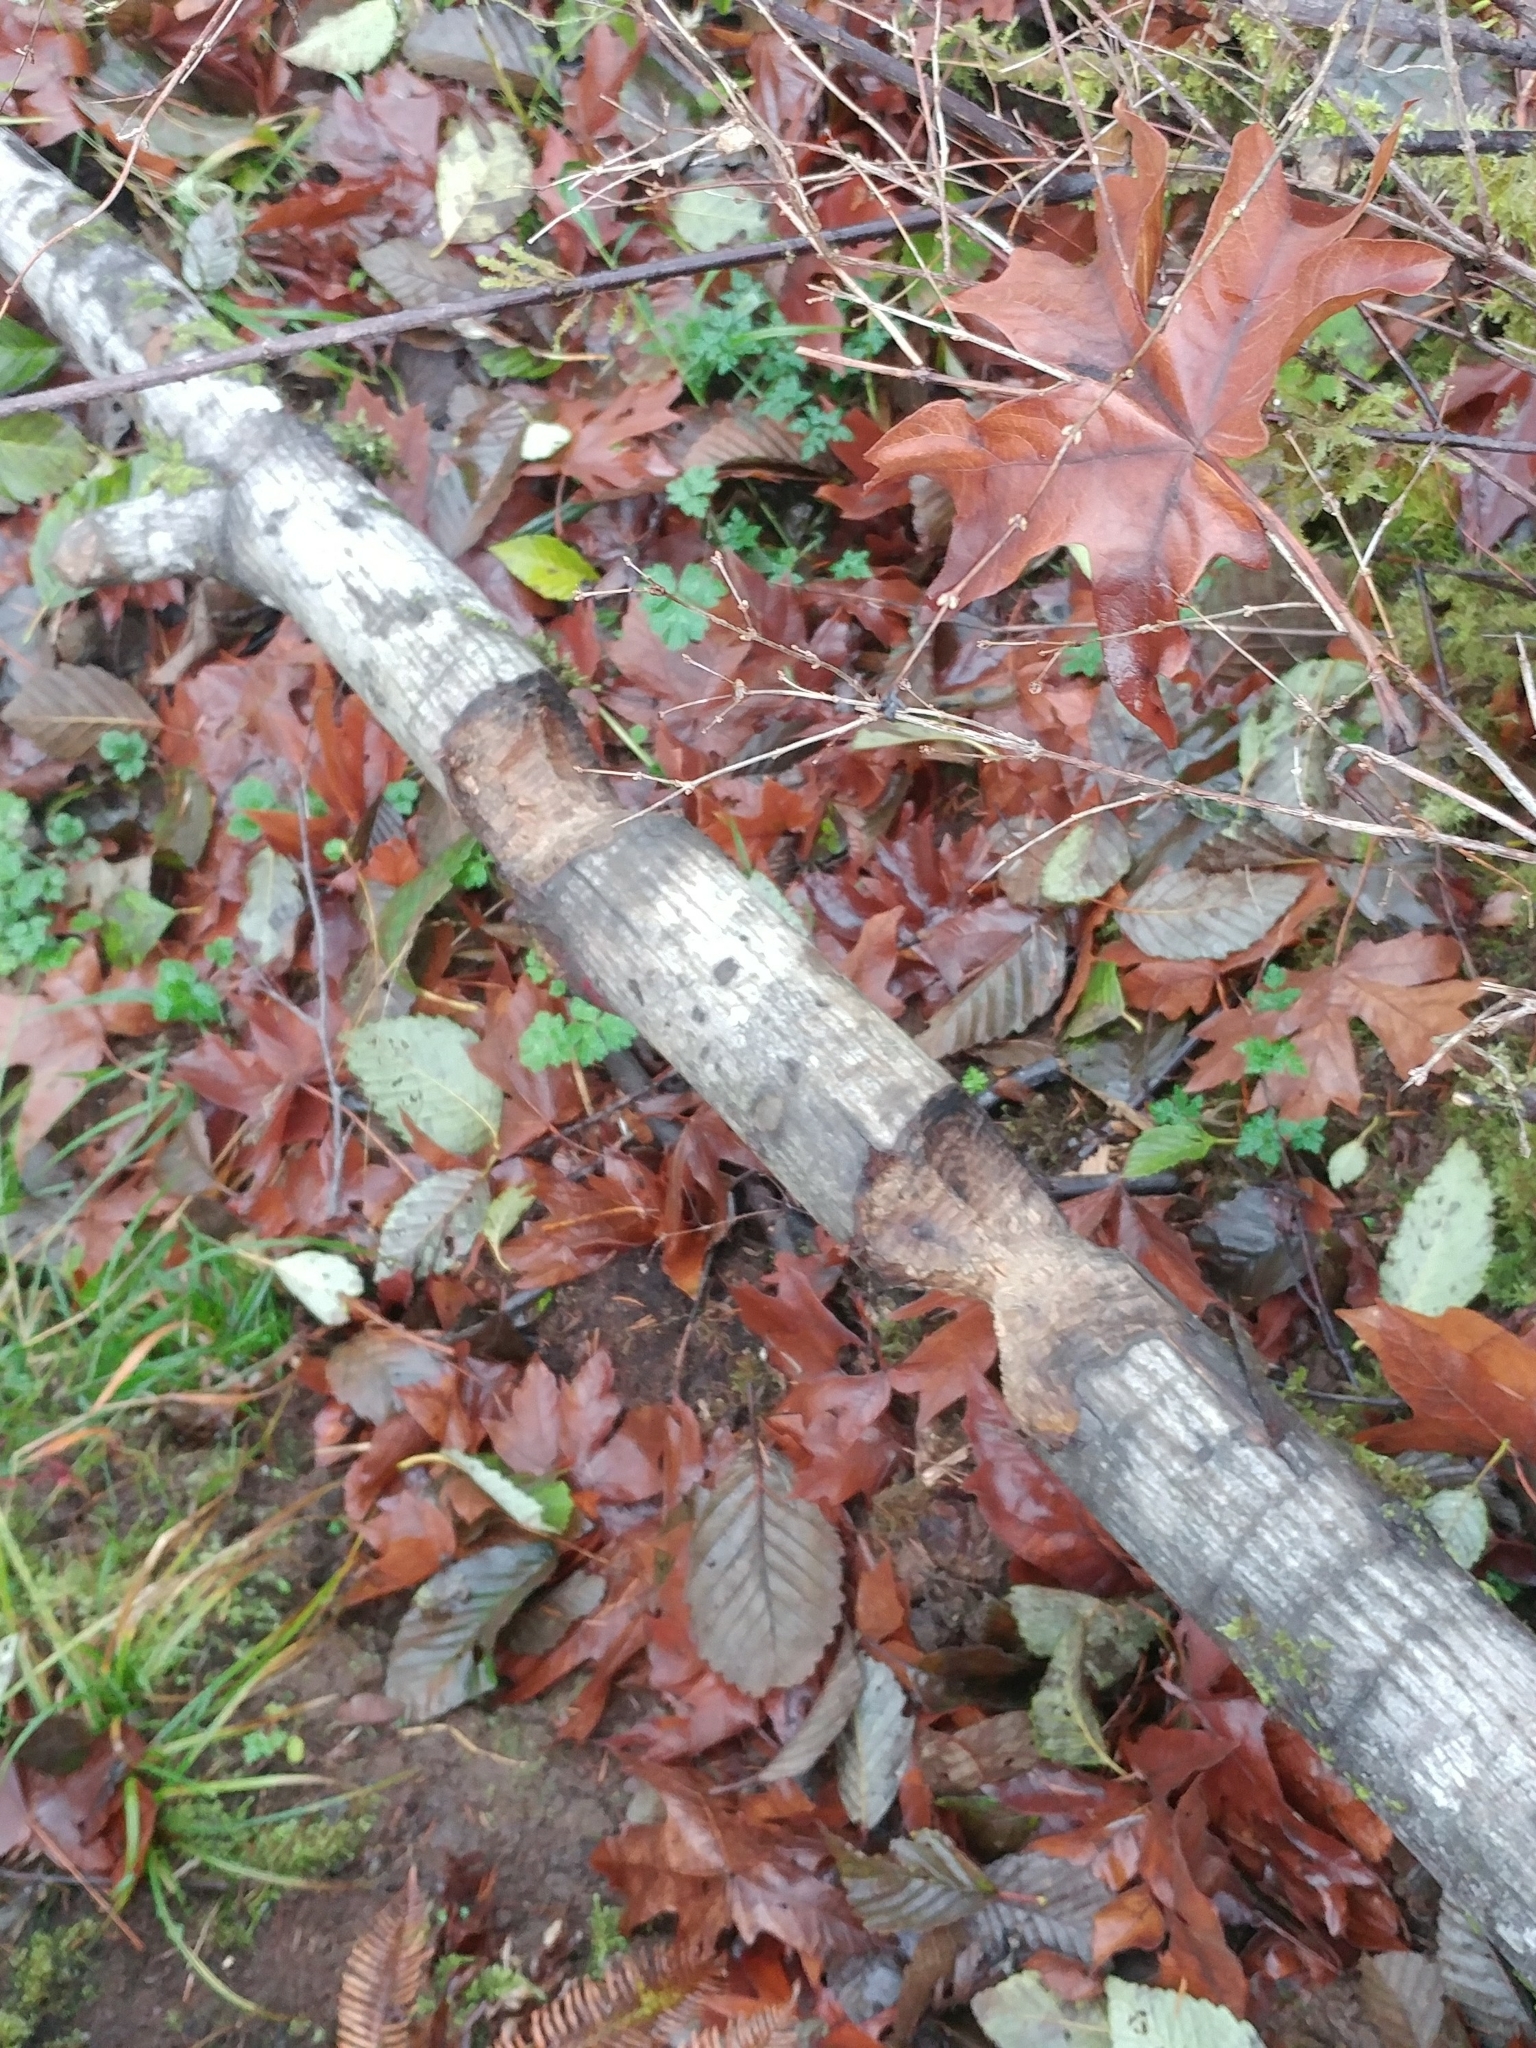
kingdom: Animalia
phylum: Chordata
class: Mammalia
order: Rodentia
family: Castoridae
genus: Castor
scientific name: Castor canadensis
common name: American beaver
